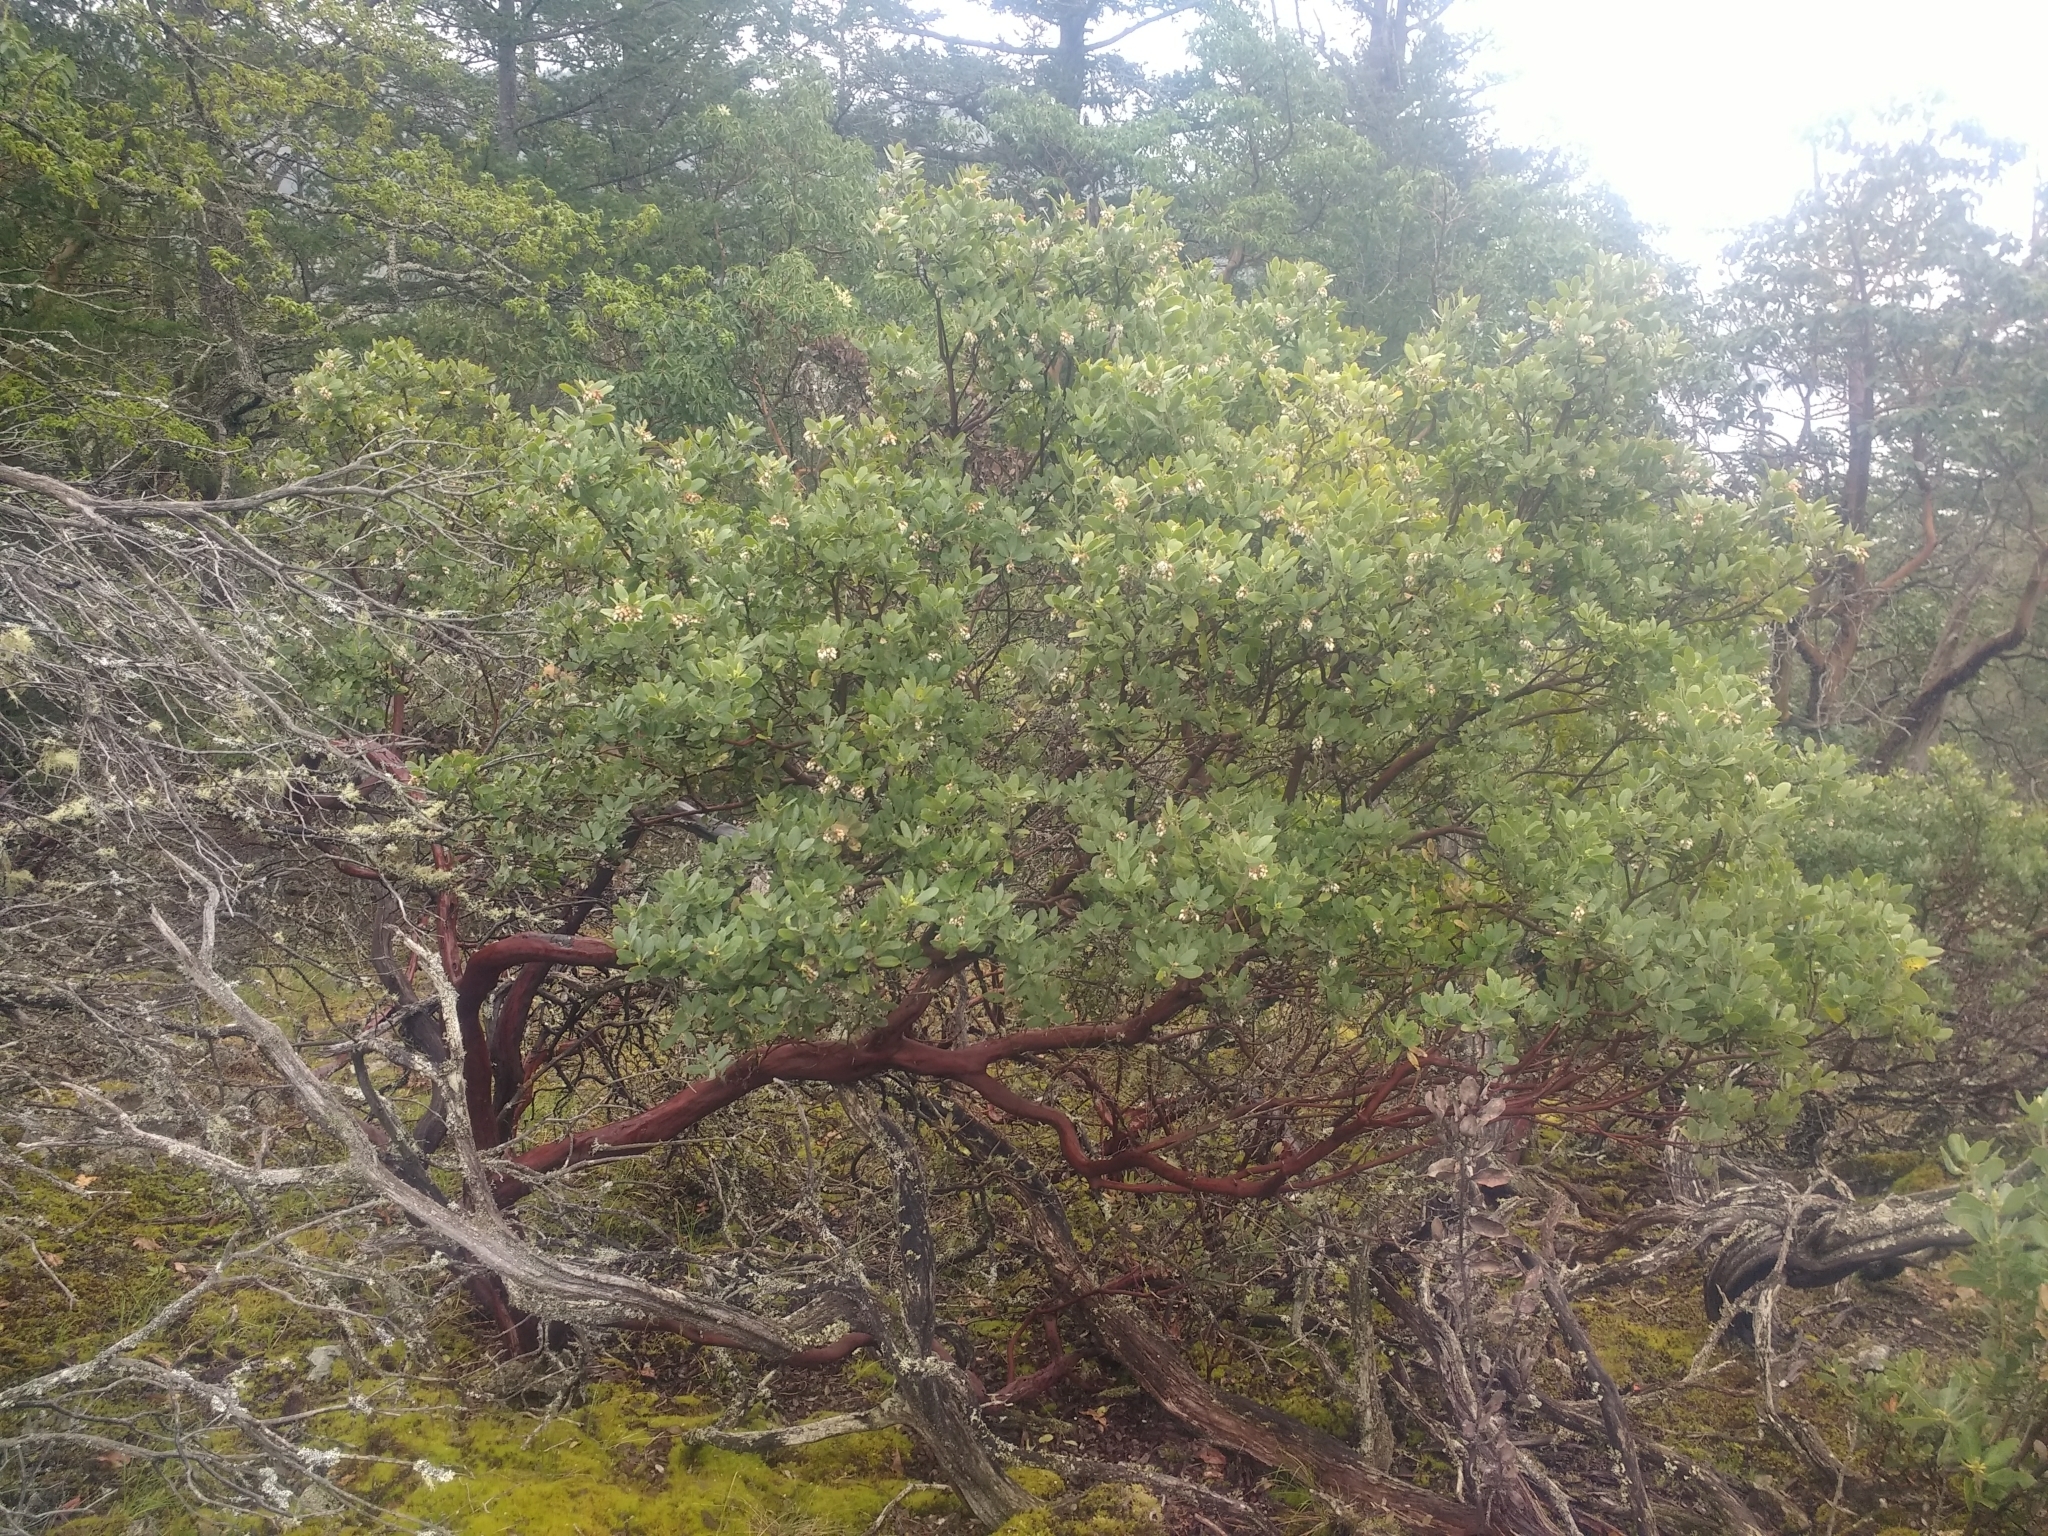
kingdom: Plantae
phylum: Tracheophyta
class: Magnoliopsida
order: Ericales
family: Ericaceae
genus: Arctostaphylos
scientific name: Arctostaphylos columbiana
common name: Bristly bearberry
